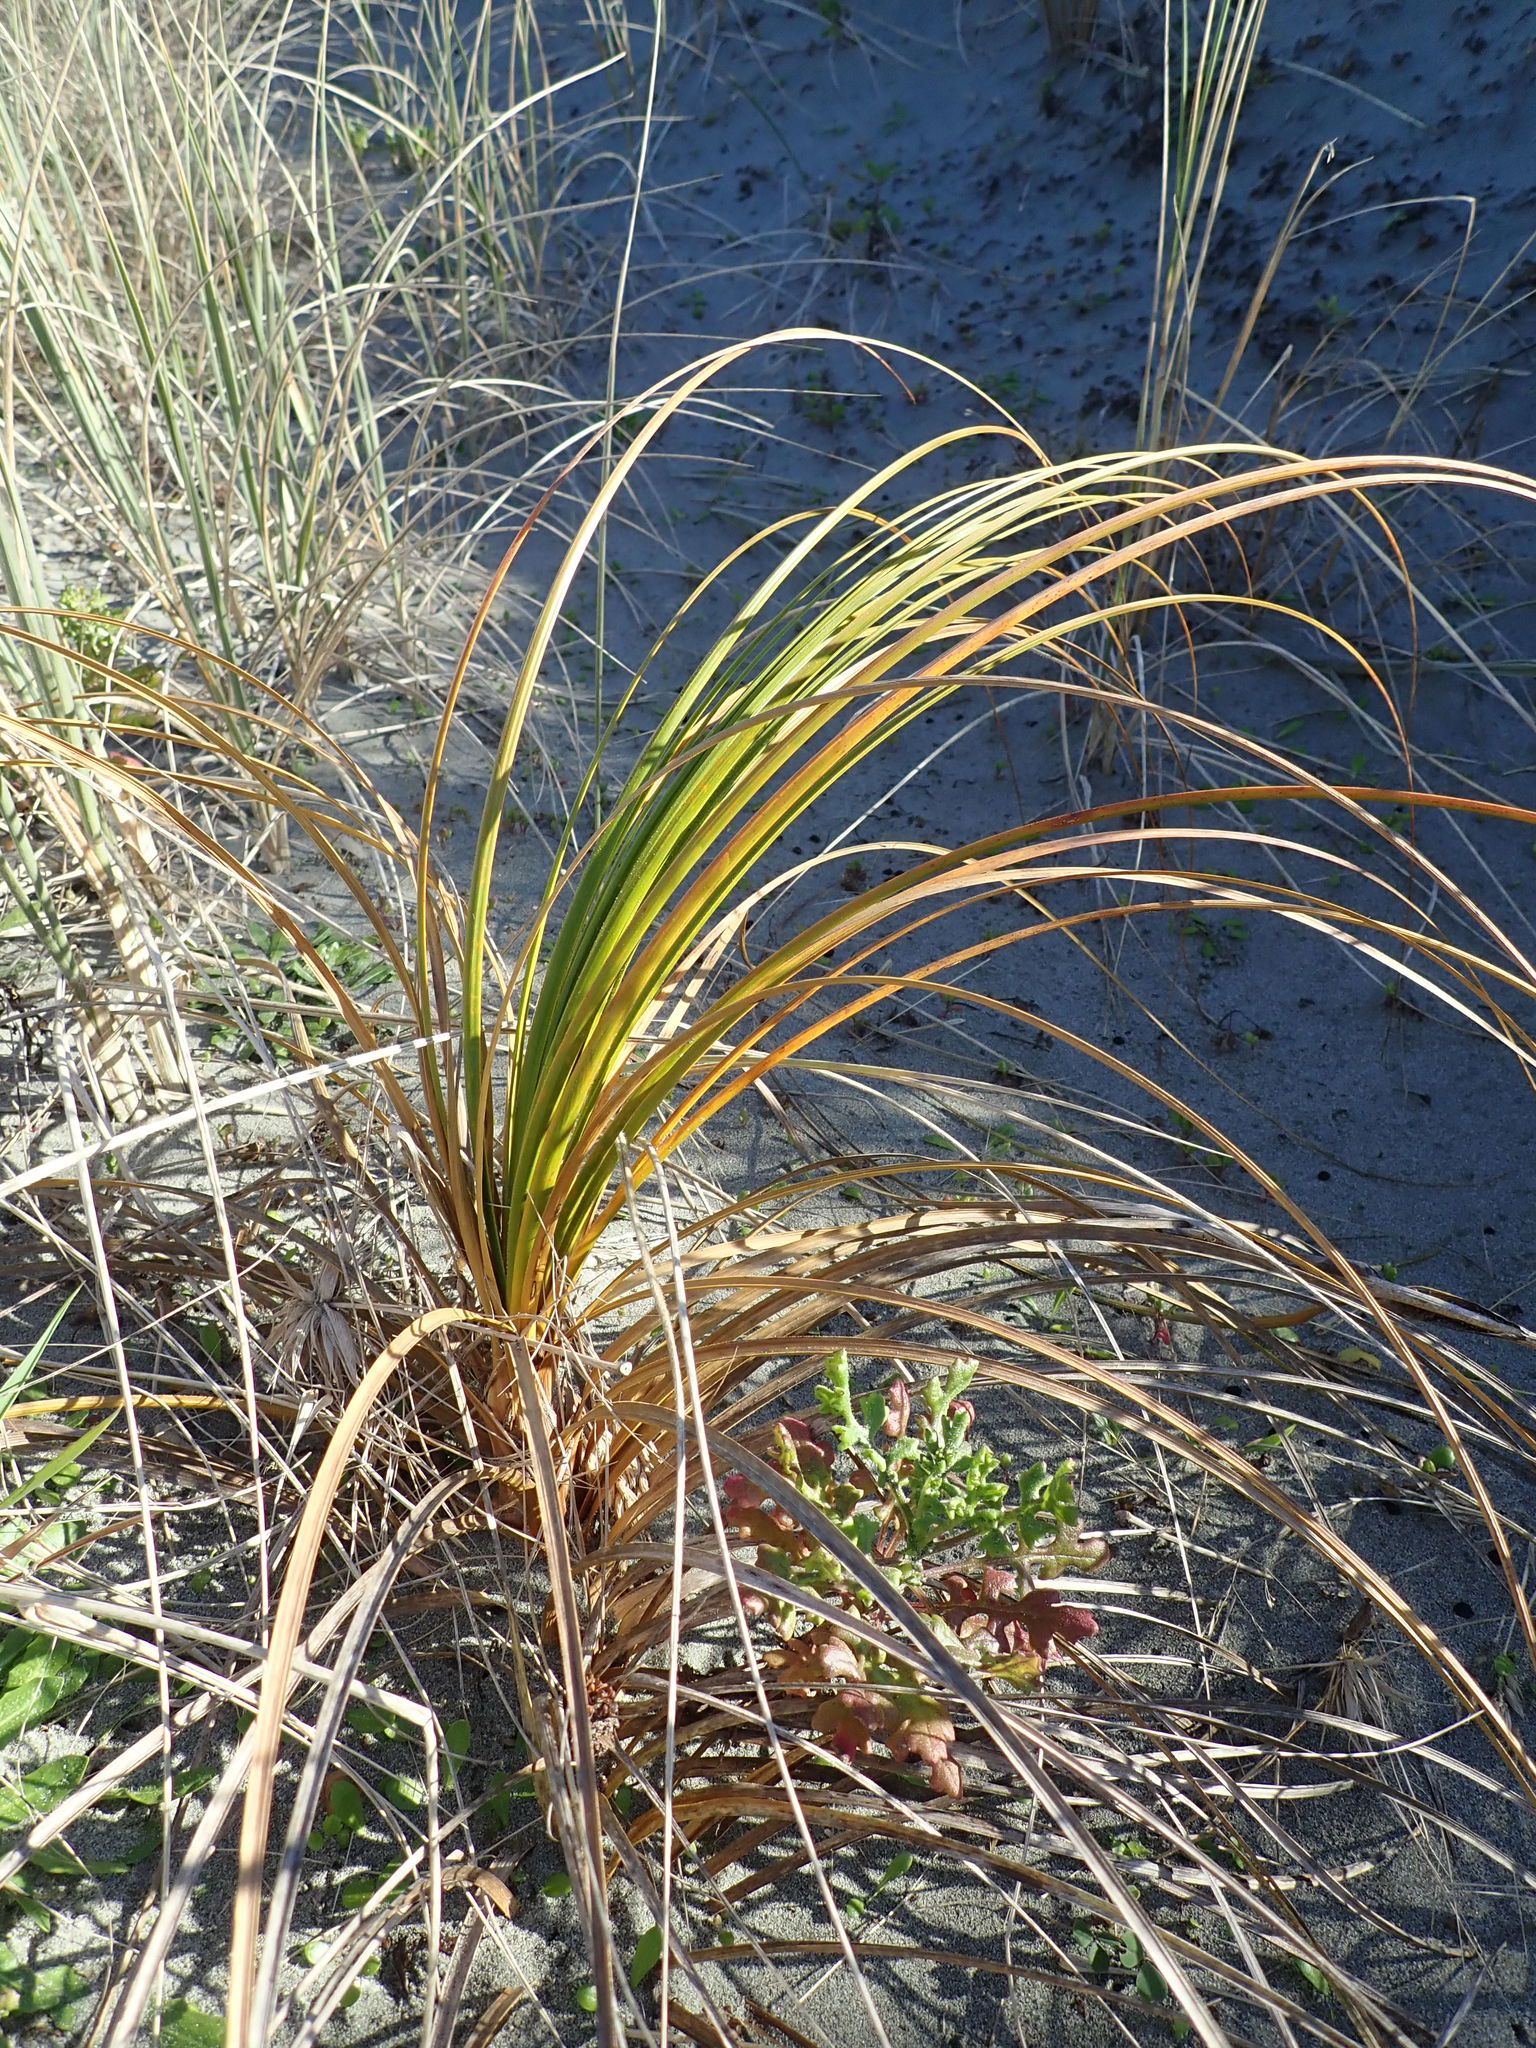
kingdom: Plantae
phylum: Tracheophyta
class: Liliopsida
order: Poales
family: Cyperaceae
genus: Ficinia
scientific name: Ficinia spiralis
